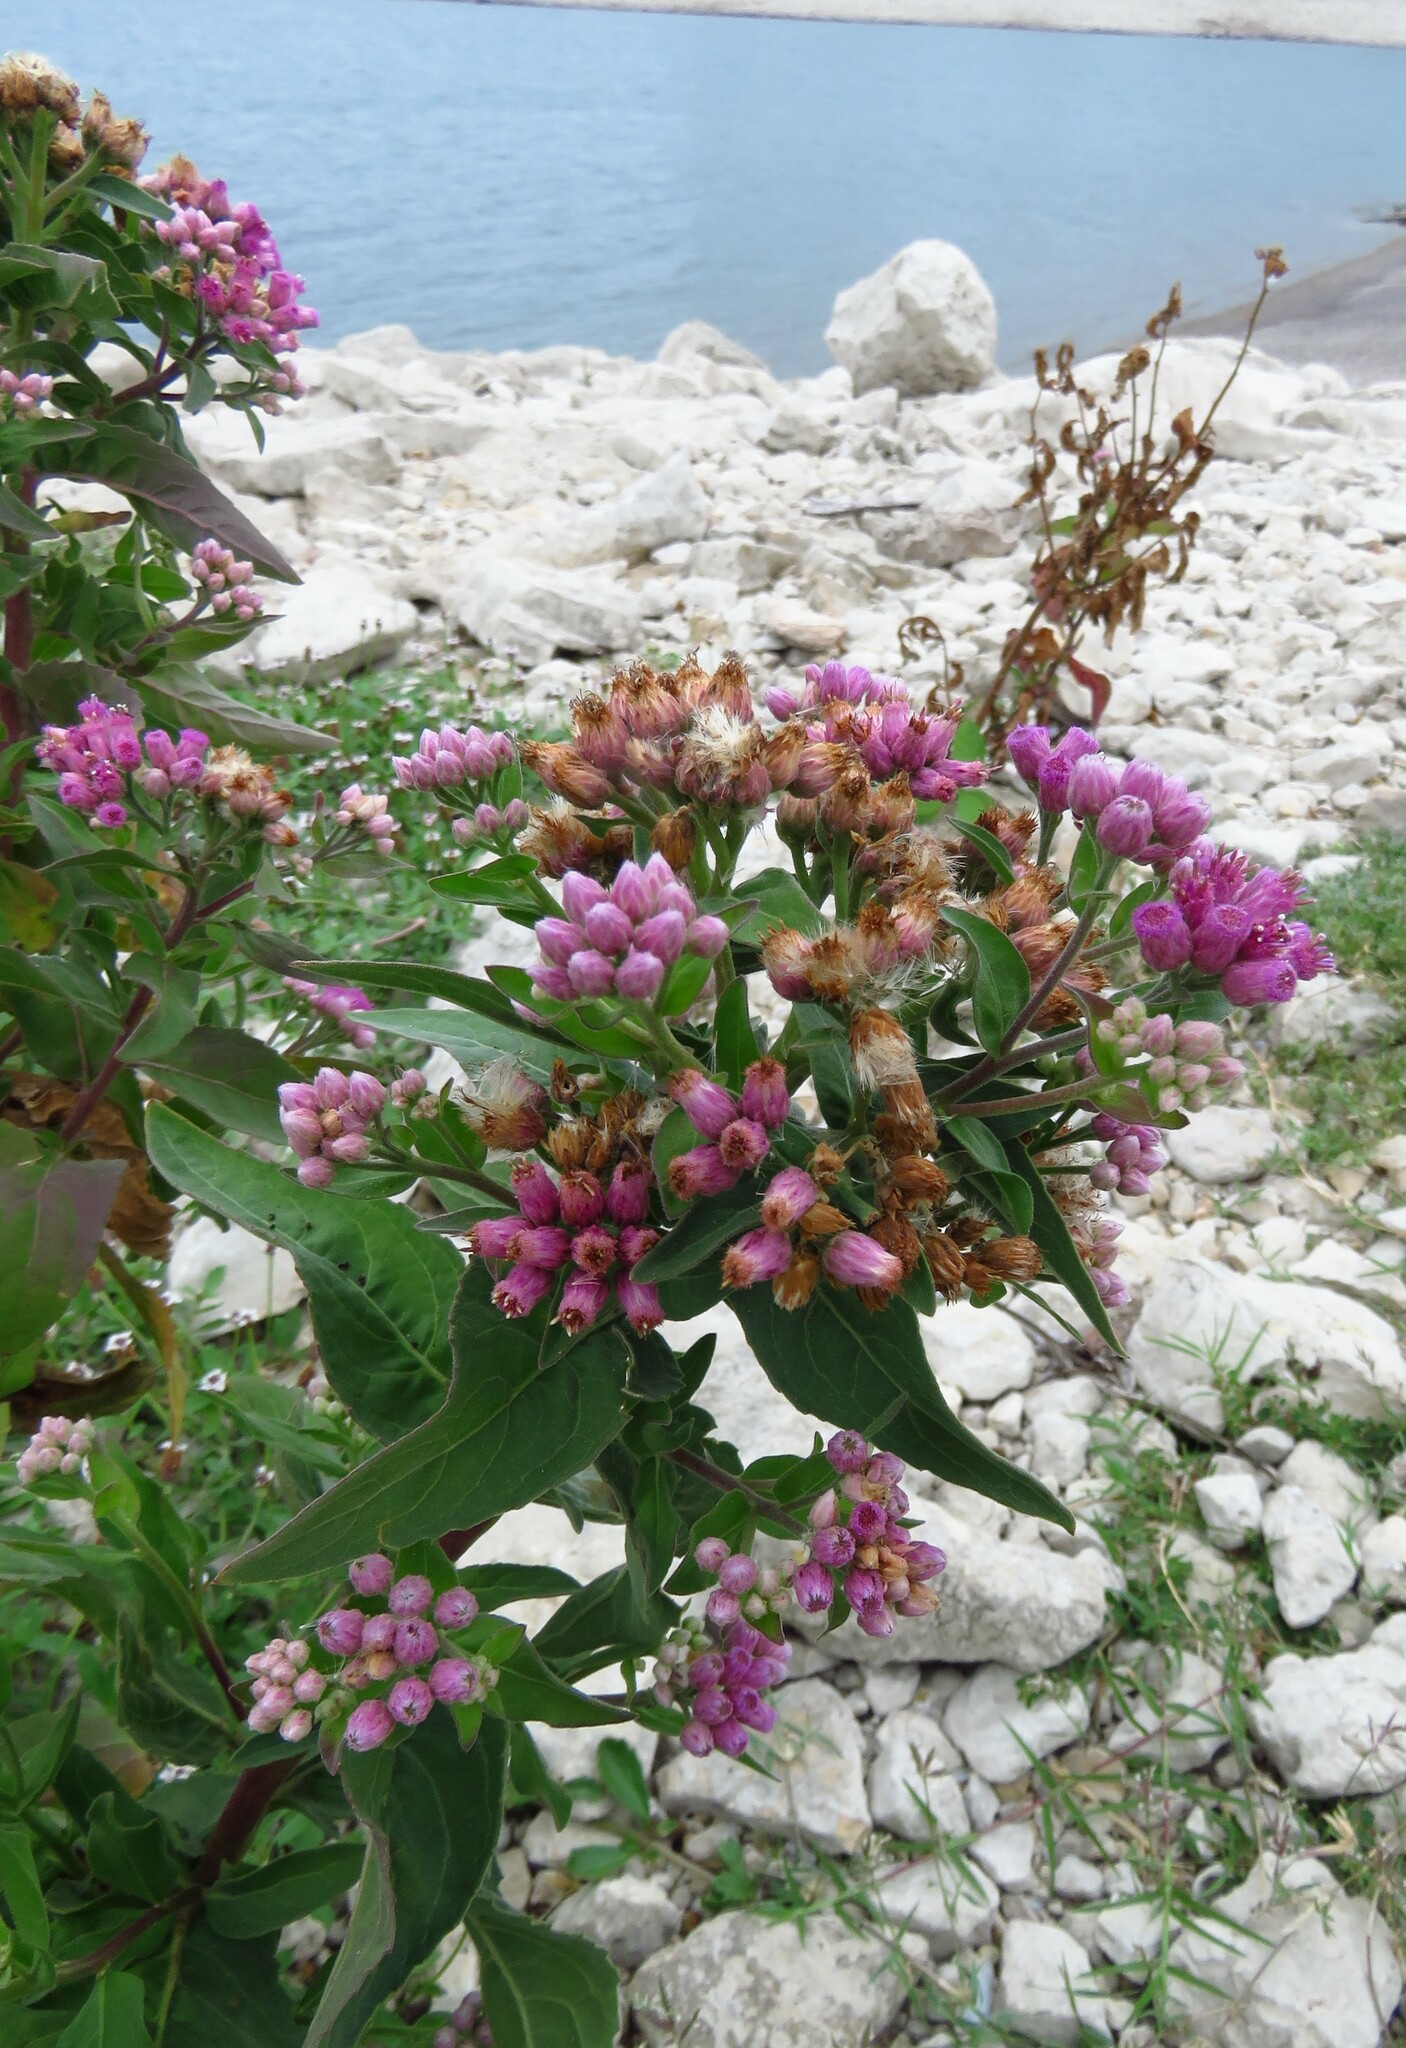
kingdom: Plantae
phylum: Tracheophyta
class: Magnoliopsida
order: Asterales
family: Asteraceae
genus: Pluchea
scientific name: Pluchea odorata
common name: Saltmarsh fleabane
